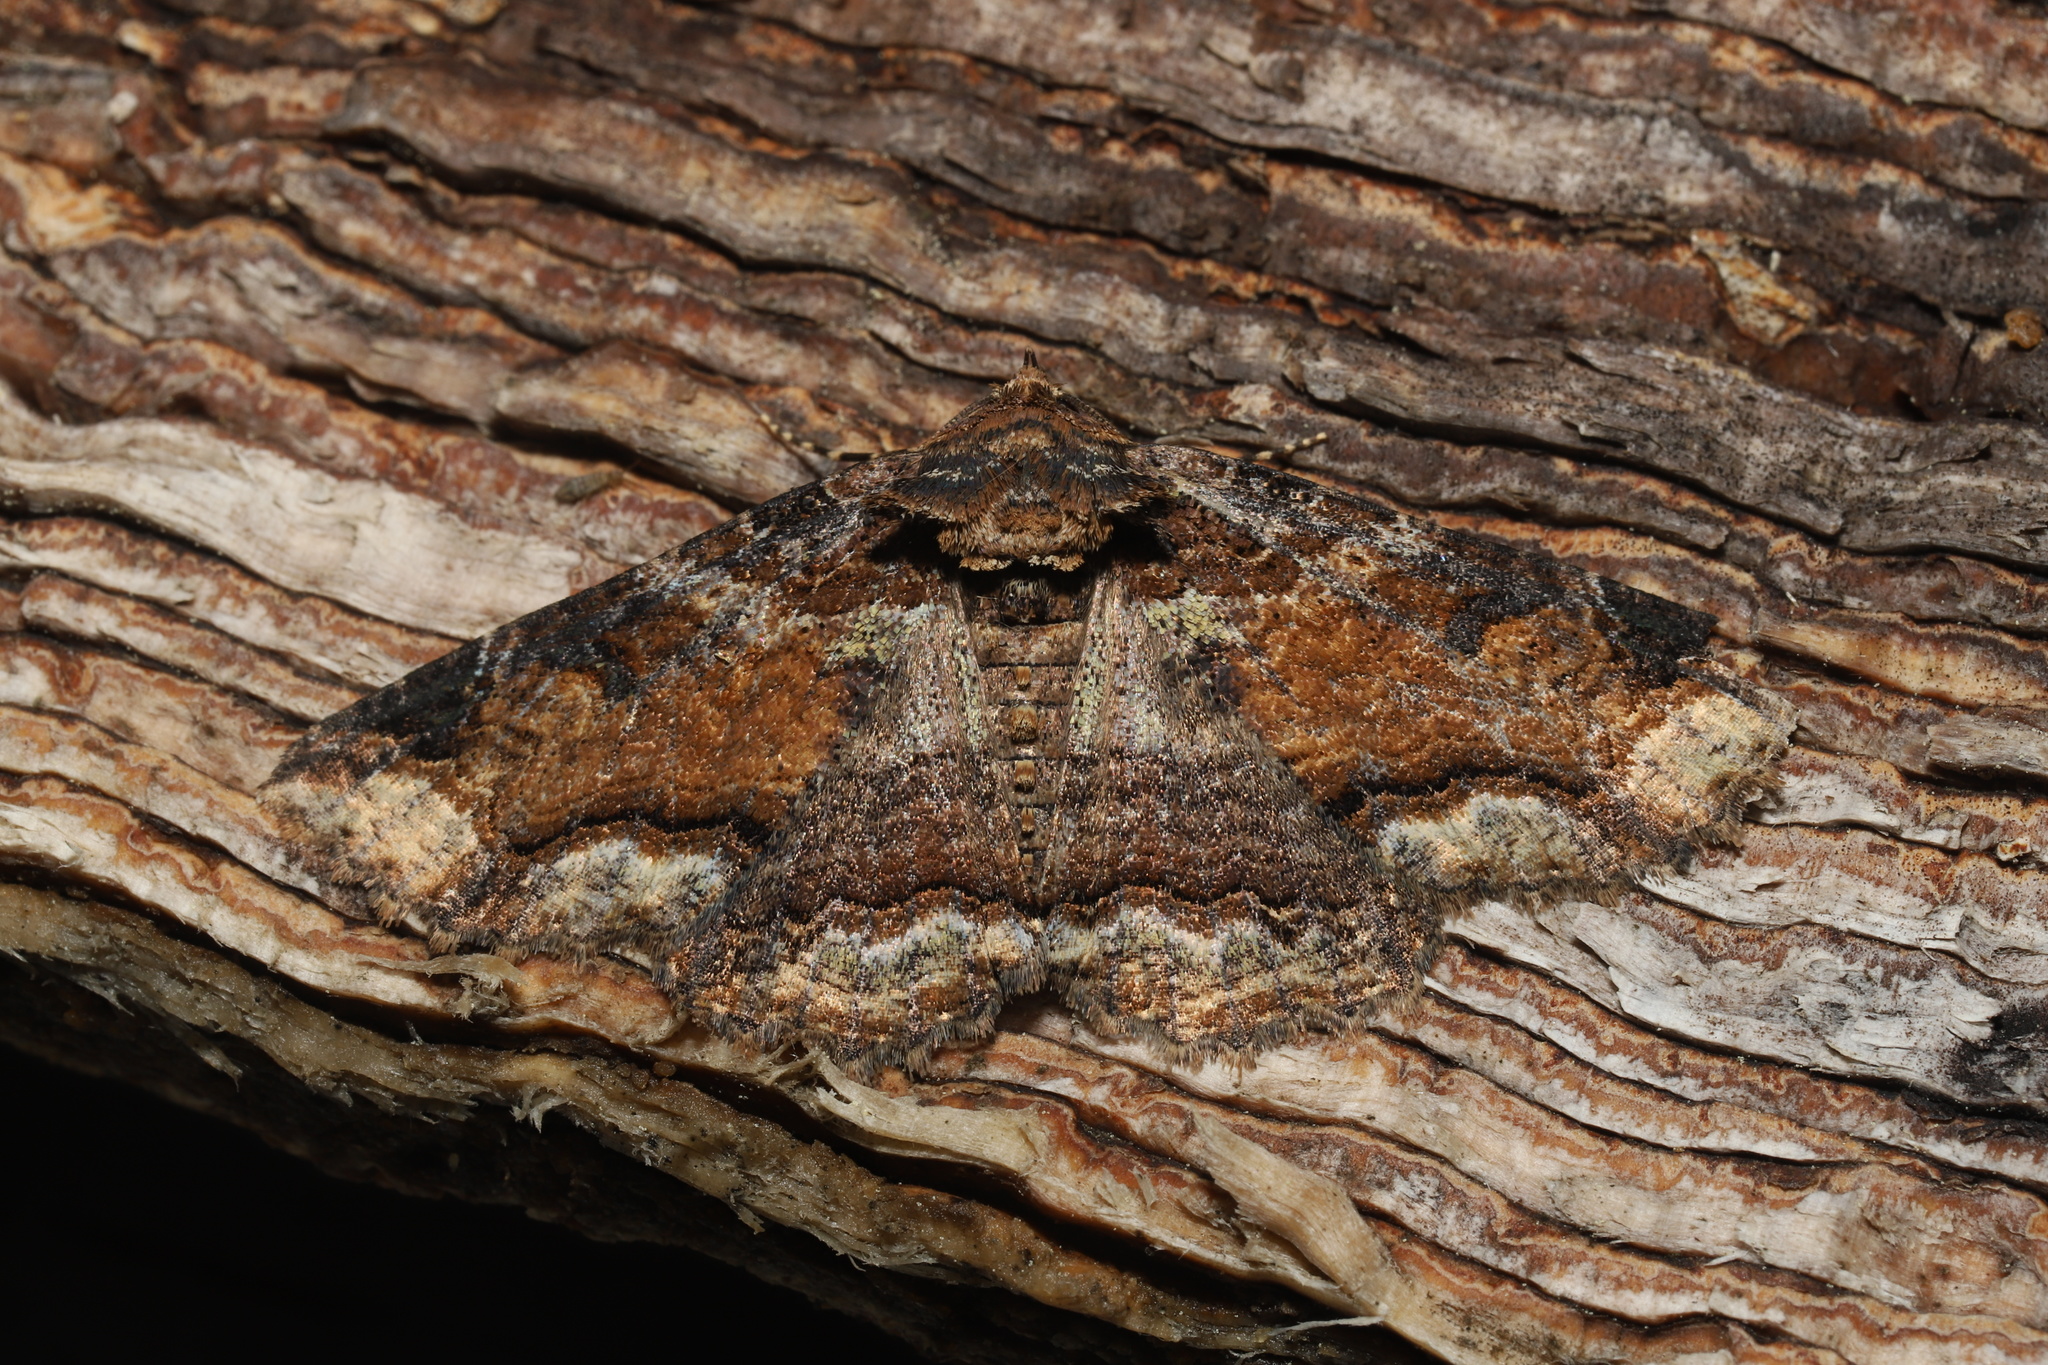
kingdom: Animalia
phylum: Arthropoda
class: Insecta
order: Lepidoptera
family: Erebidae
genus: Zale
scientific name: Zale minerea
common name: Colorful zale moth
